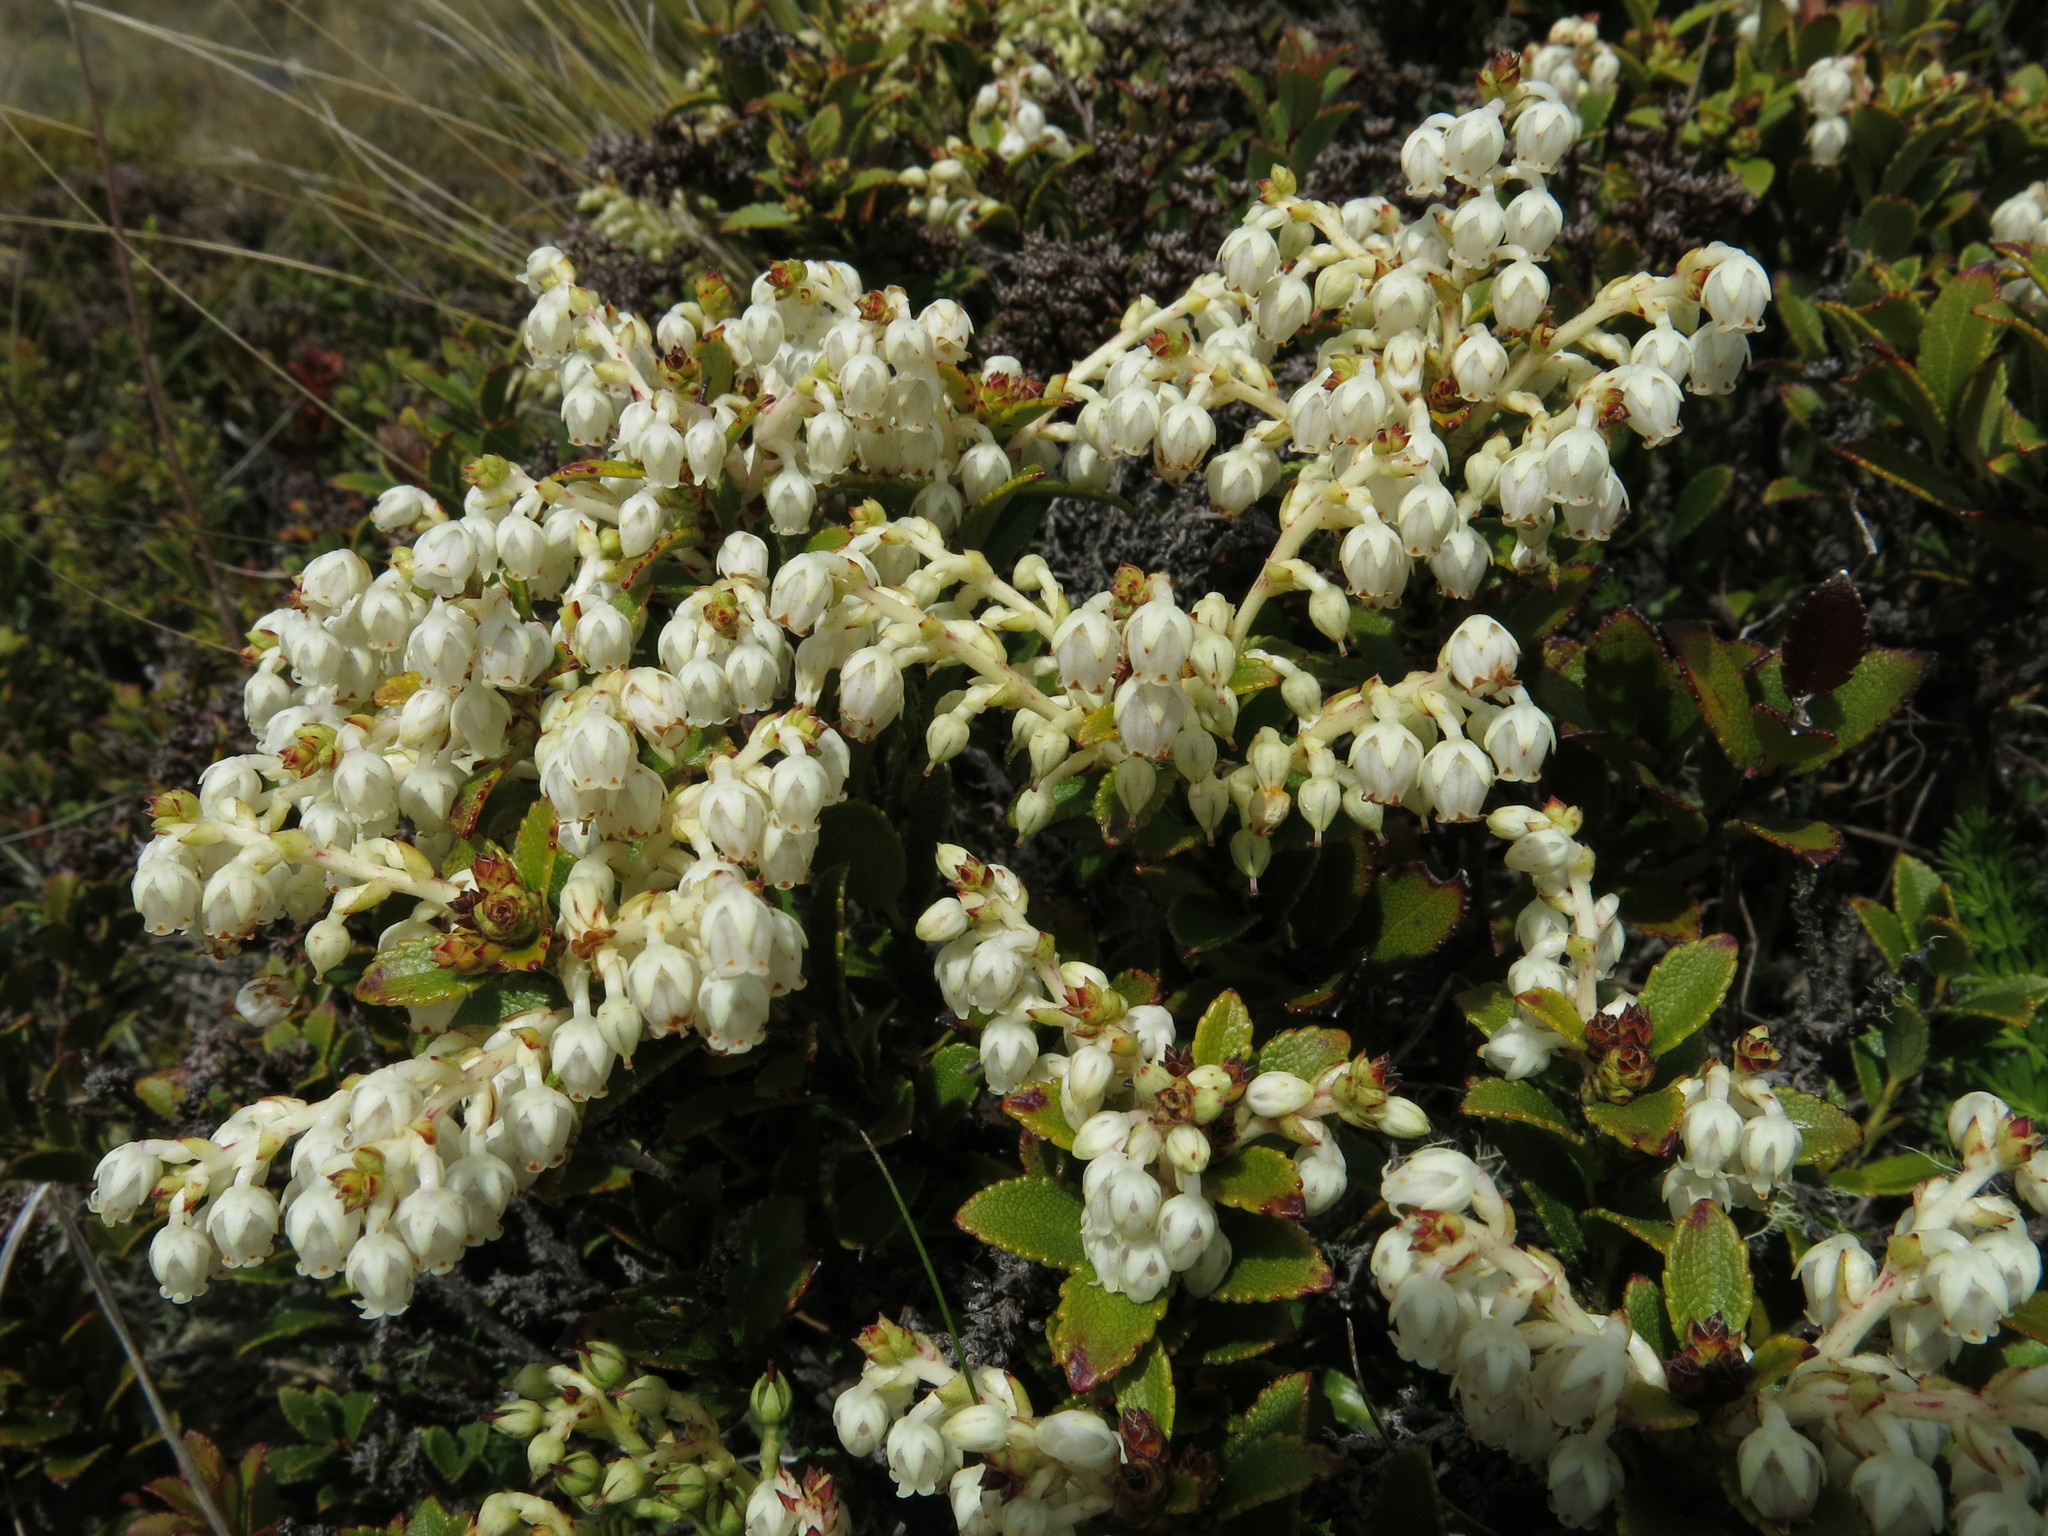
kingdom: Plantae
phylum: Tracheophyta
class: Magnoliopsida
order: Ericales
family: Ericaceae
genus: Gaultheria
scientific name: Gaultheria crassa
